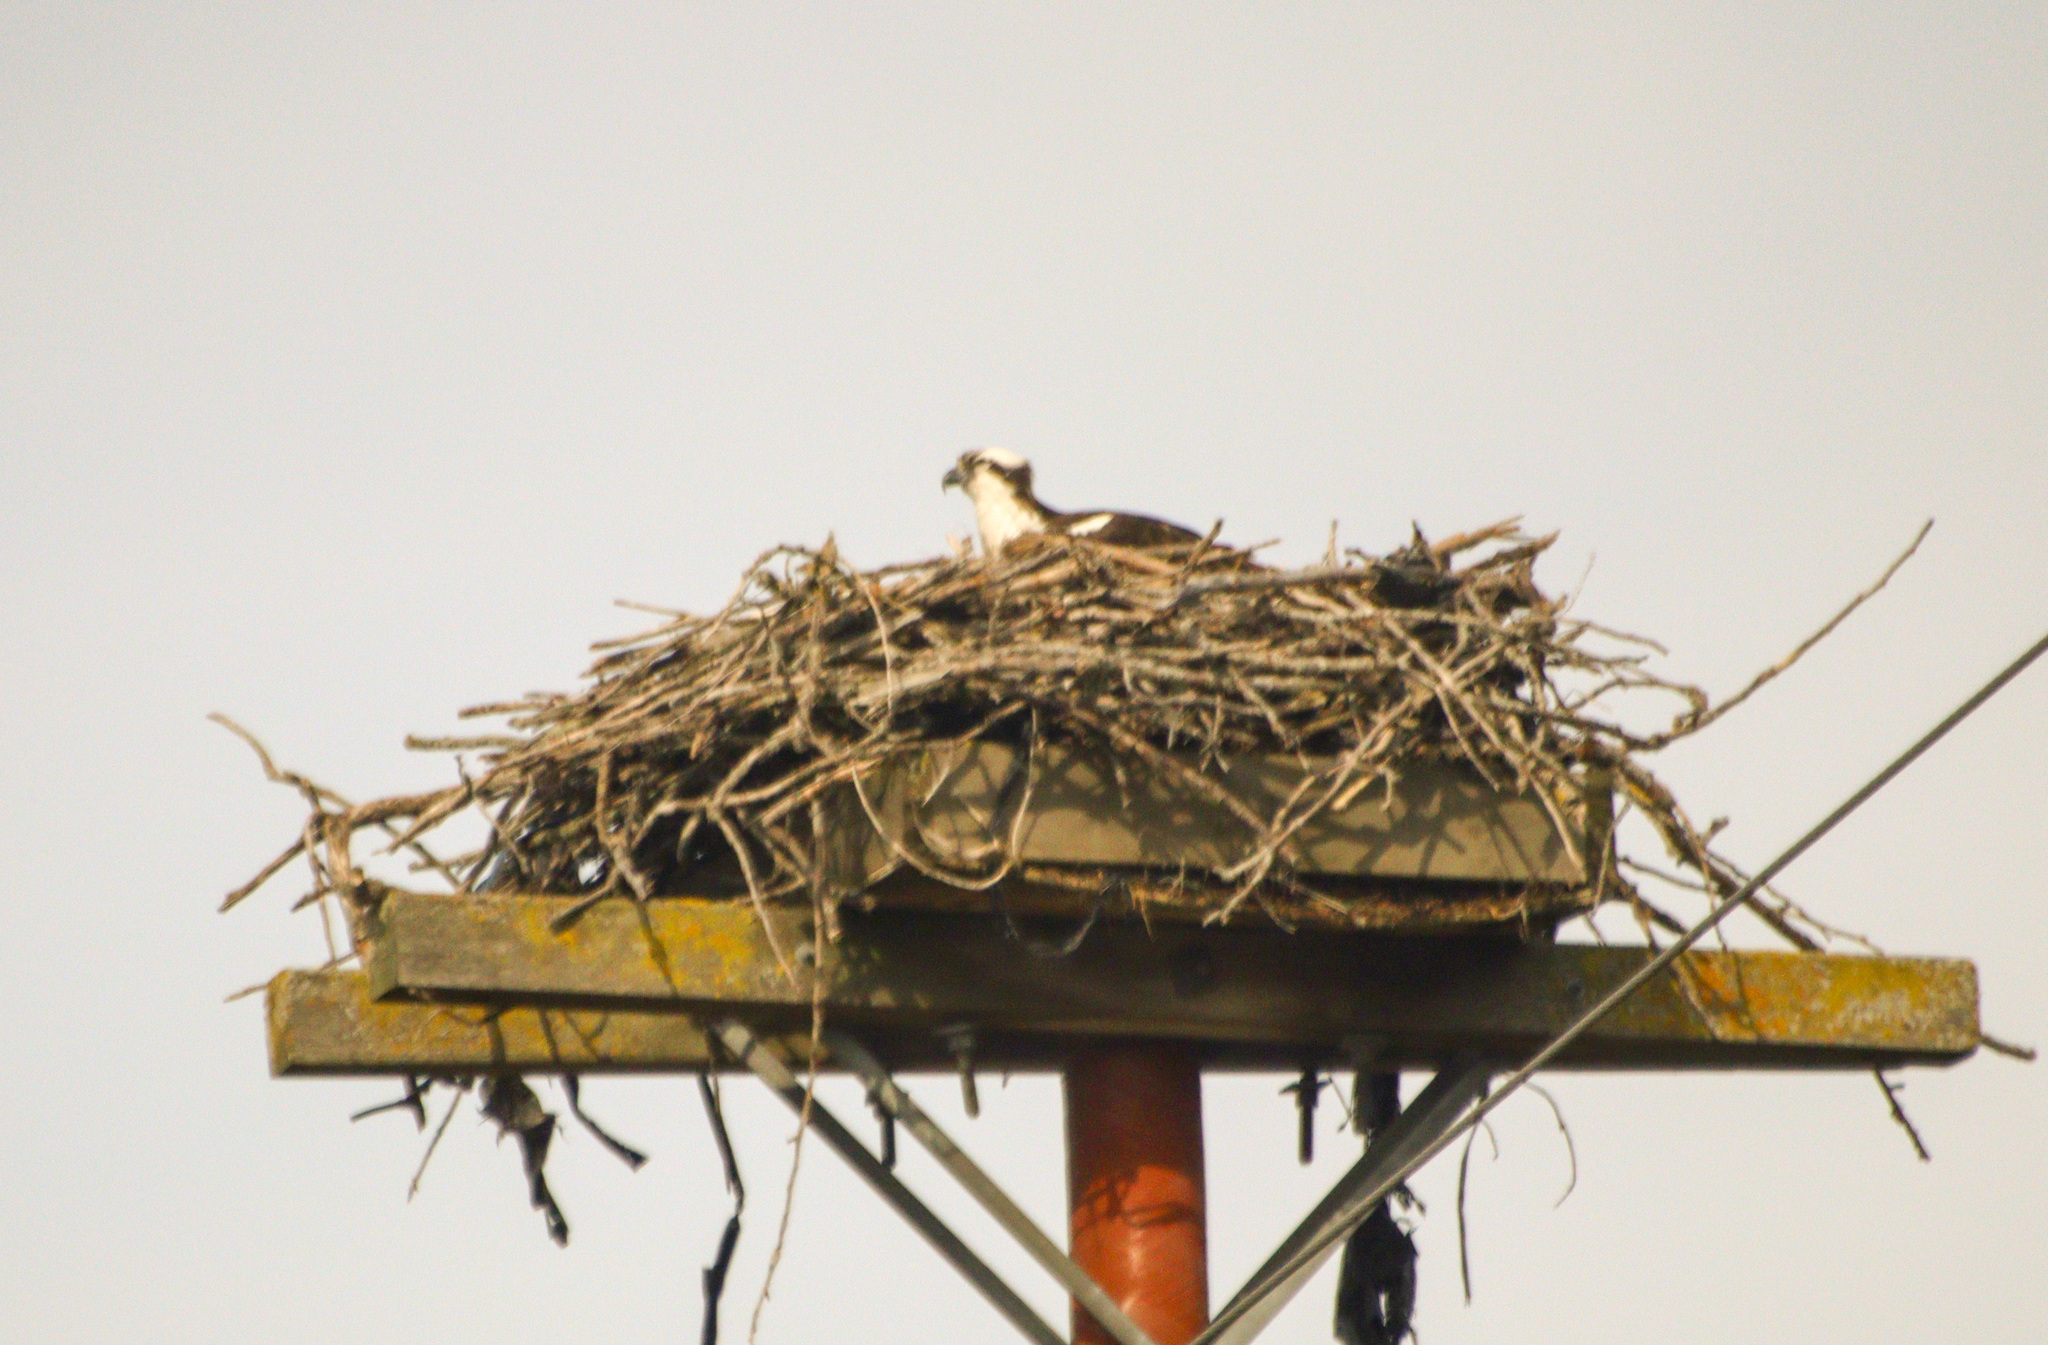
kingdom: Animalia
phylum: Chordata
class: Aves
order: Accipitriformes
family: Pandionidae
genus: Pandion
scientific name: Pandion haliaetus
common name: Osprey
